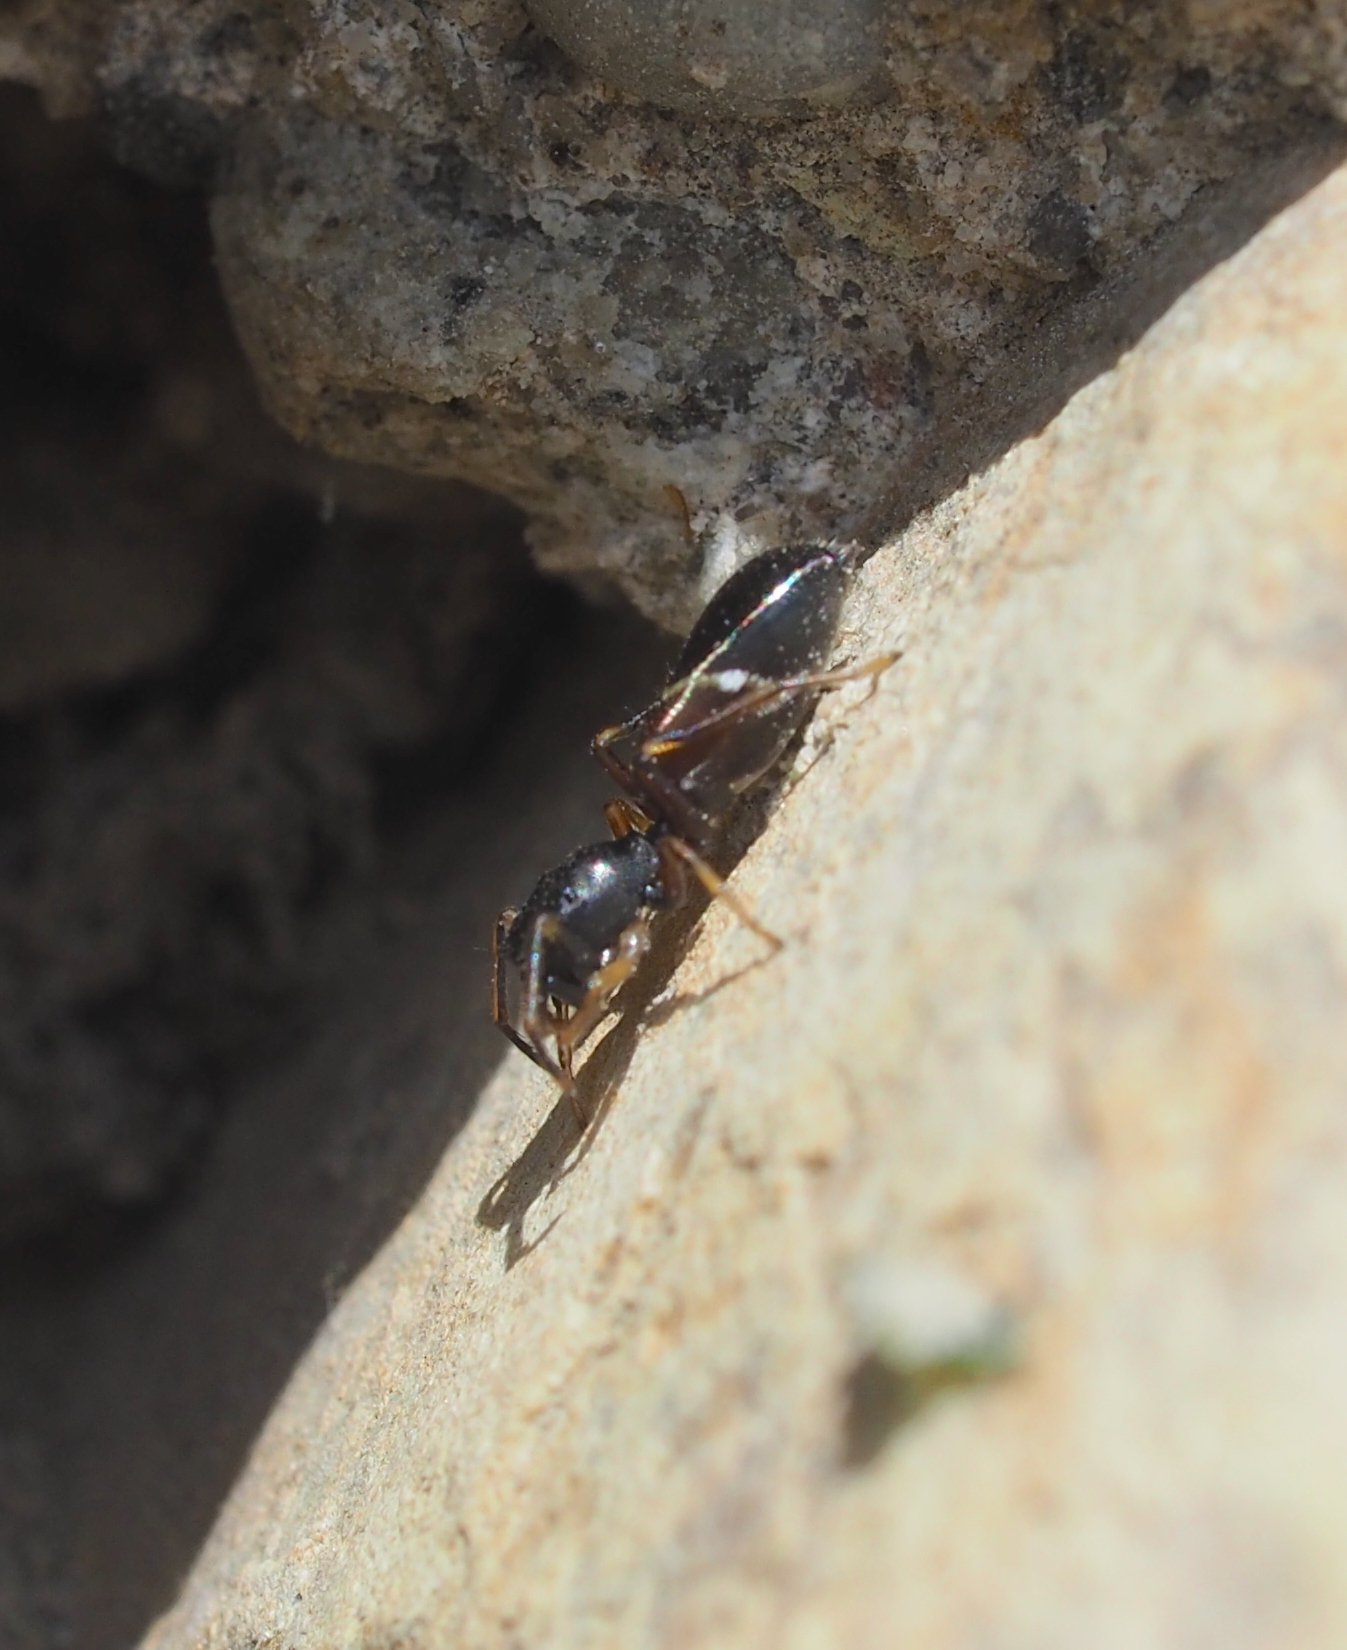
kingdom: Animalia
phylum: Arthropoda
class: Arachnida
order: Araneae
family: Salticidae
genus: Leptorchestes
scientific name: Leptorchestes berolinensis
